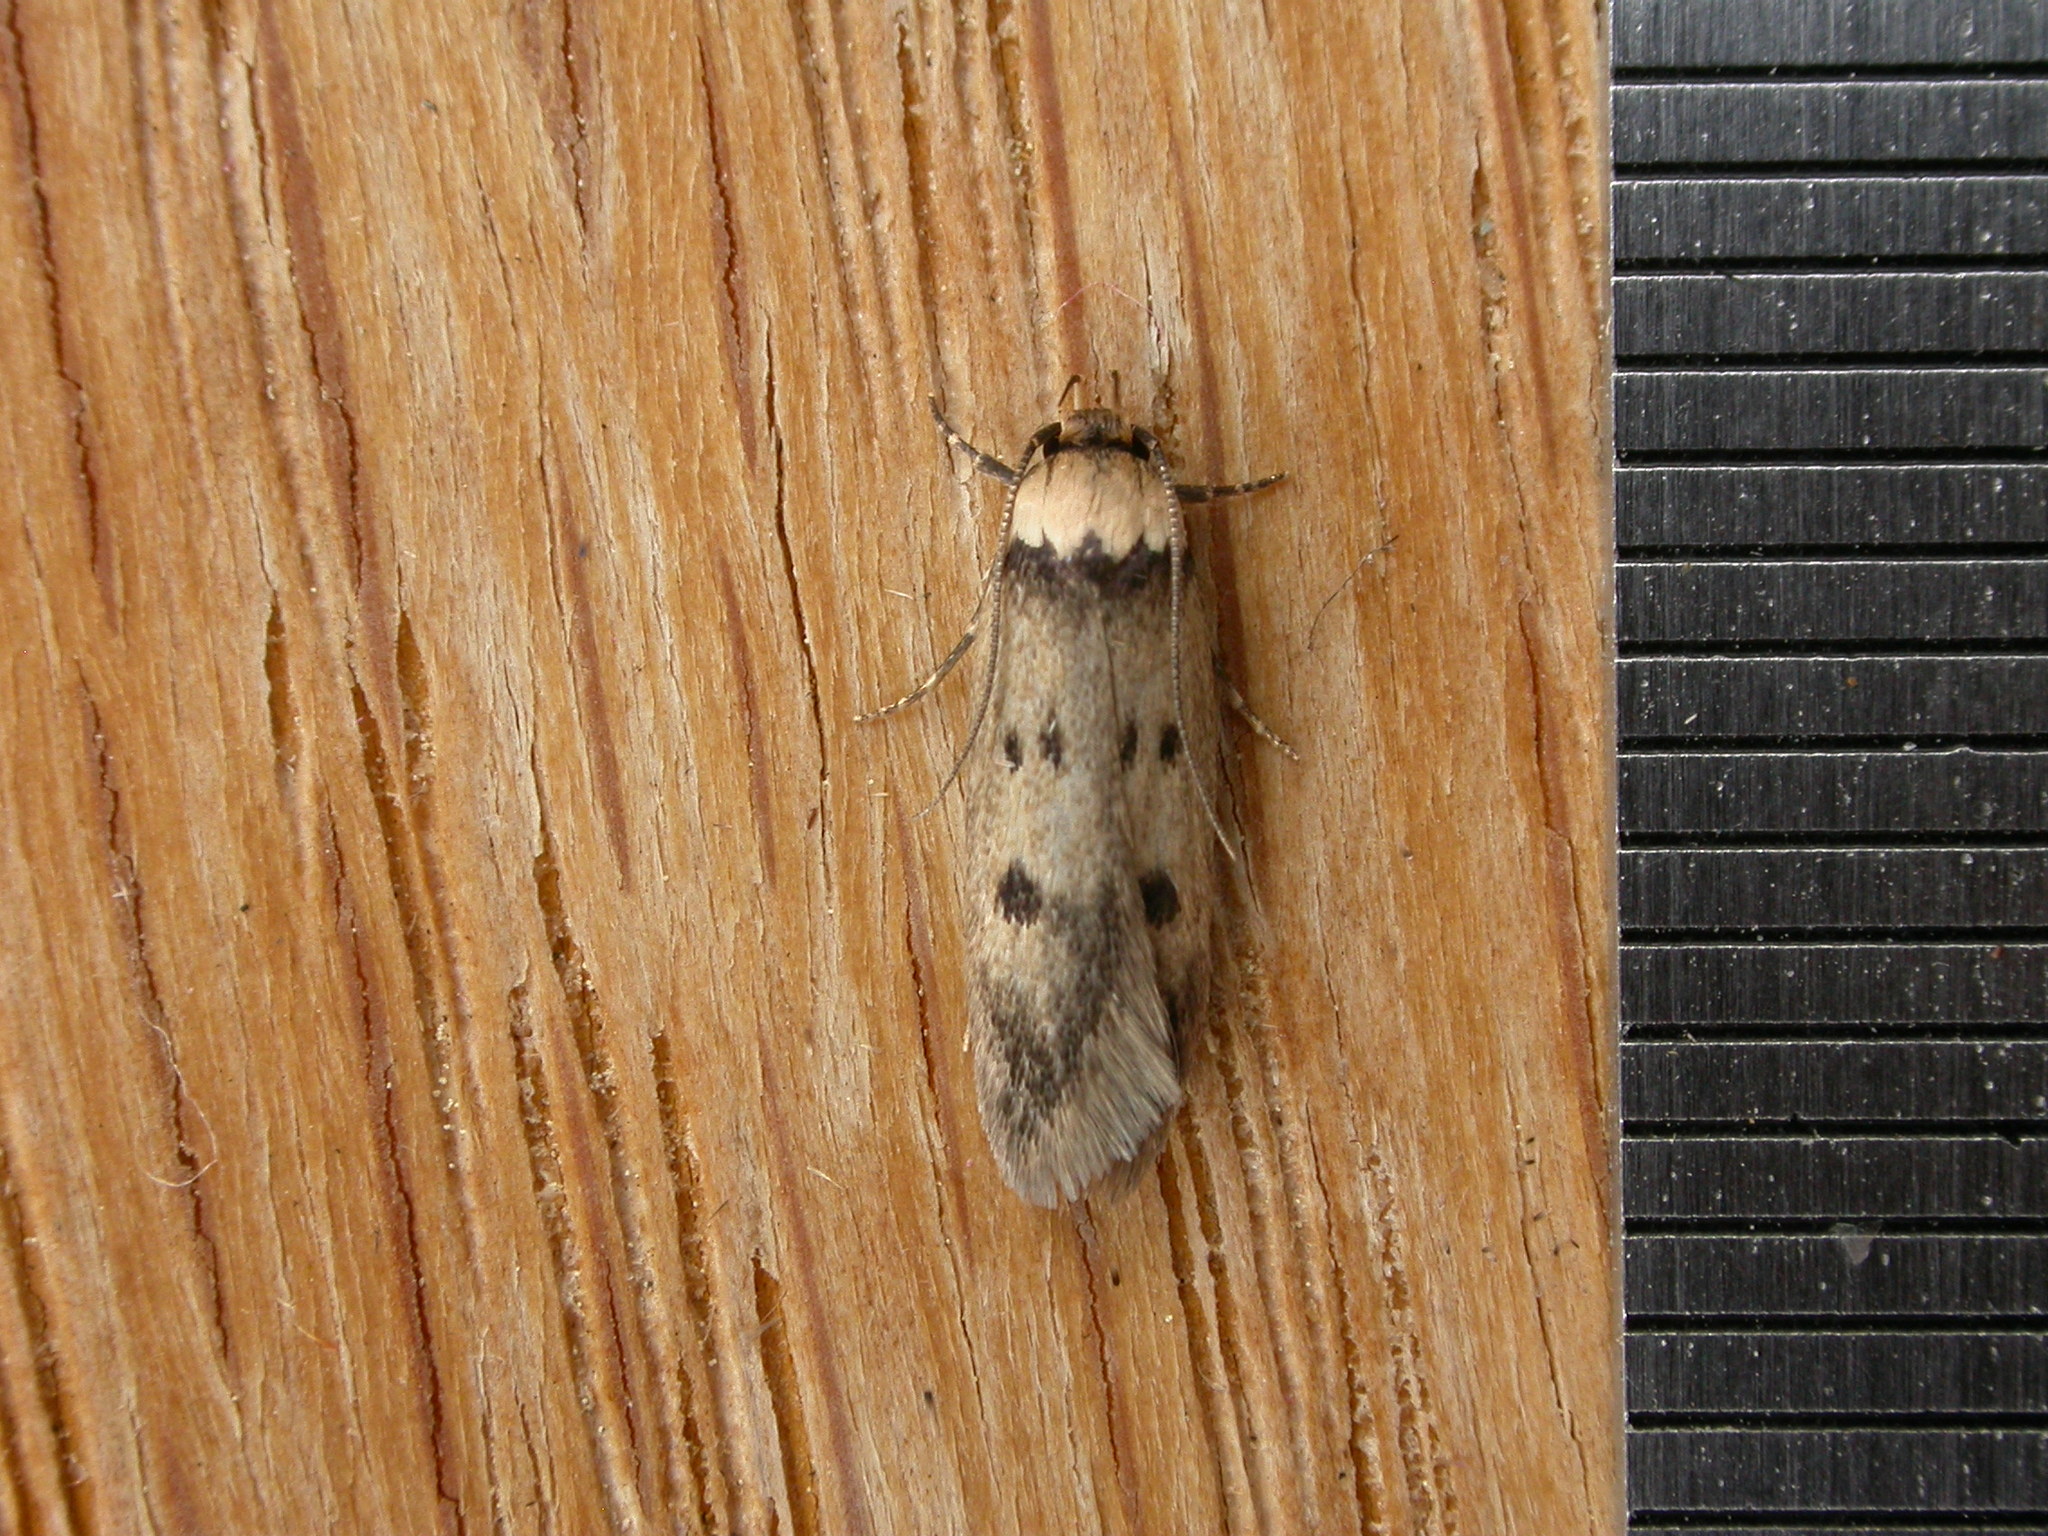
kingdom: Animalia
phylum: Arthropoda
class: Insecta
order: Lepidoptera
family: Oecophoridae
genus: Mimobrachyoma
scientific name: Mimobrachyoma pseudopis
